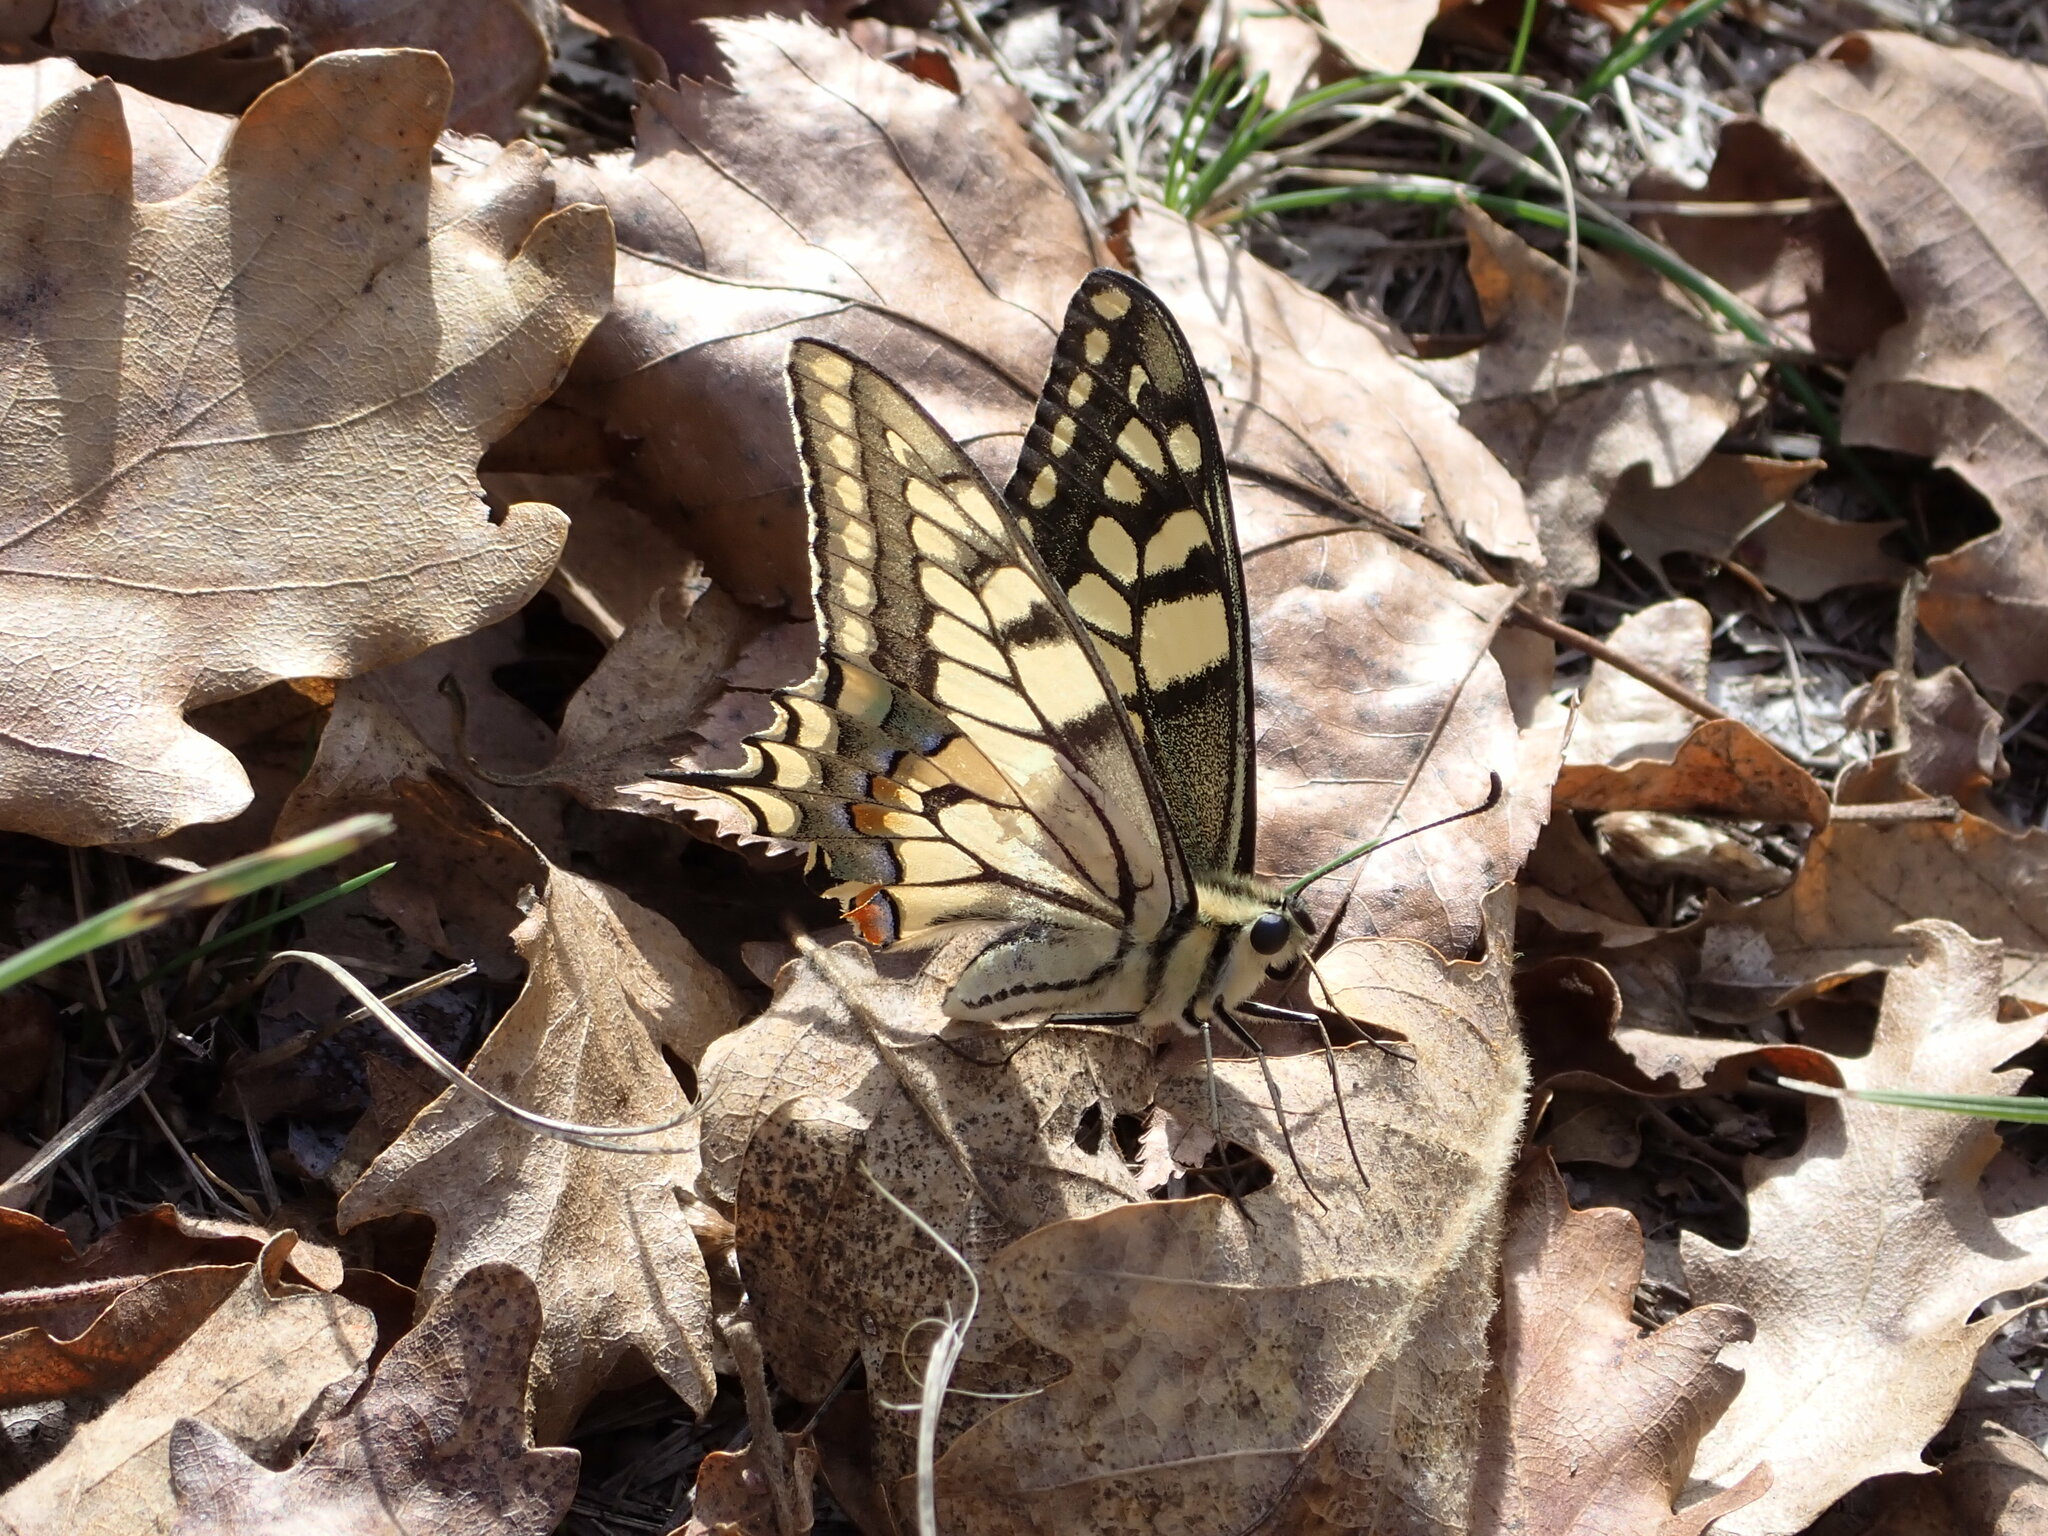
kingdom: Animalia
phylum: Arthropoda
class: Insecta
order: Lepidoptera
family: Papilionidae
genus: Papilio
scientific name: Papilio machaon
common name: Swallowtail
